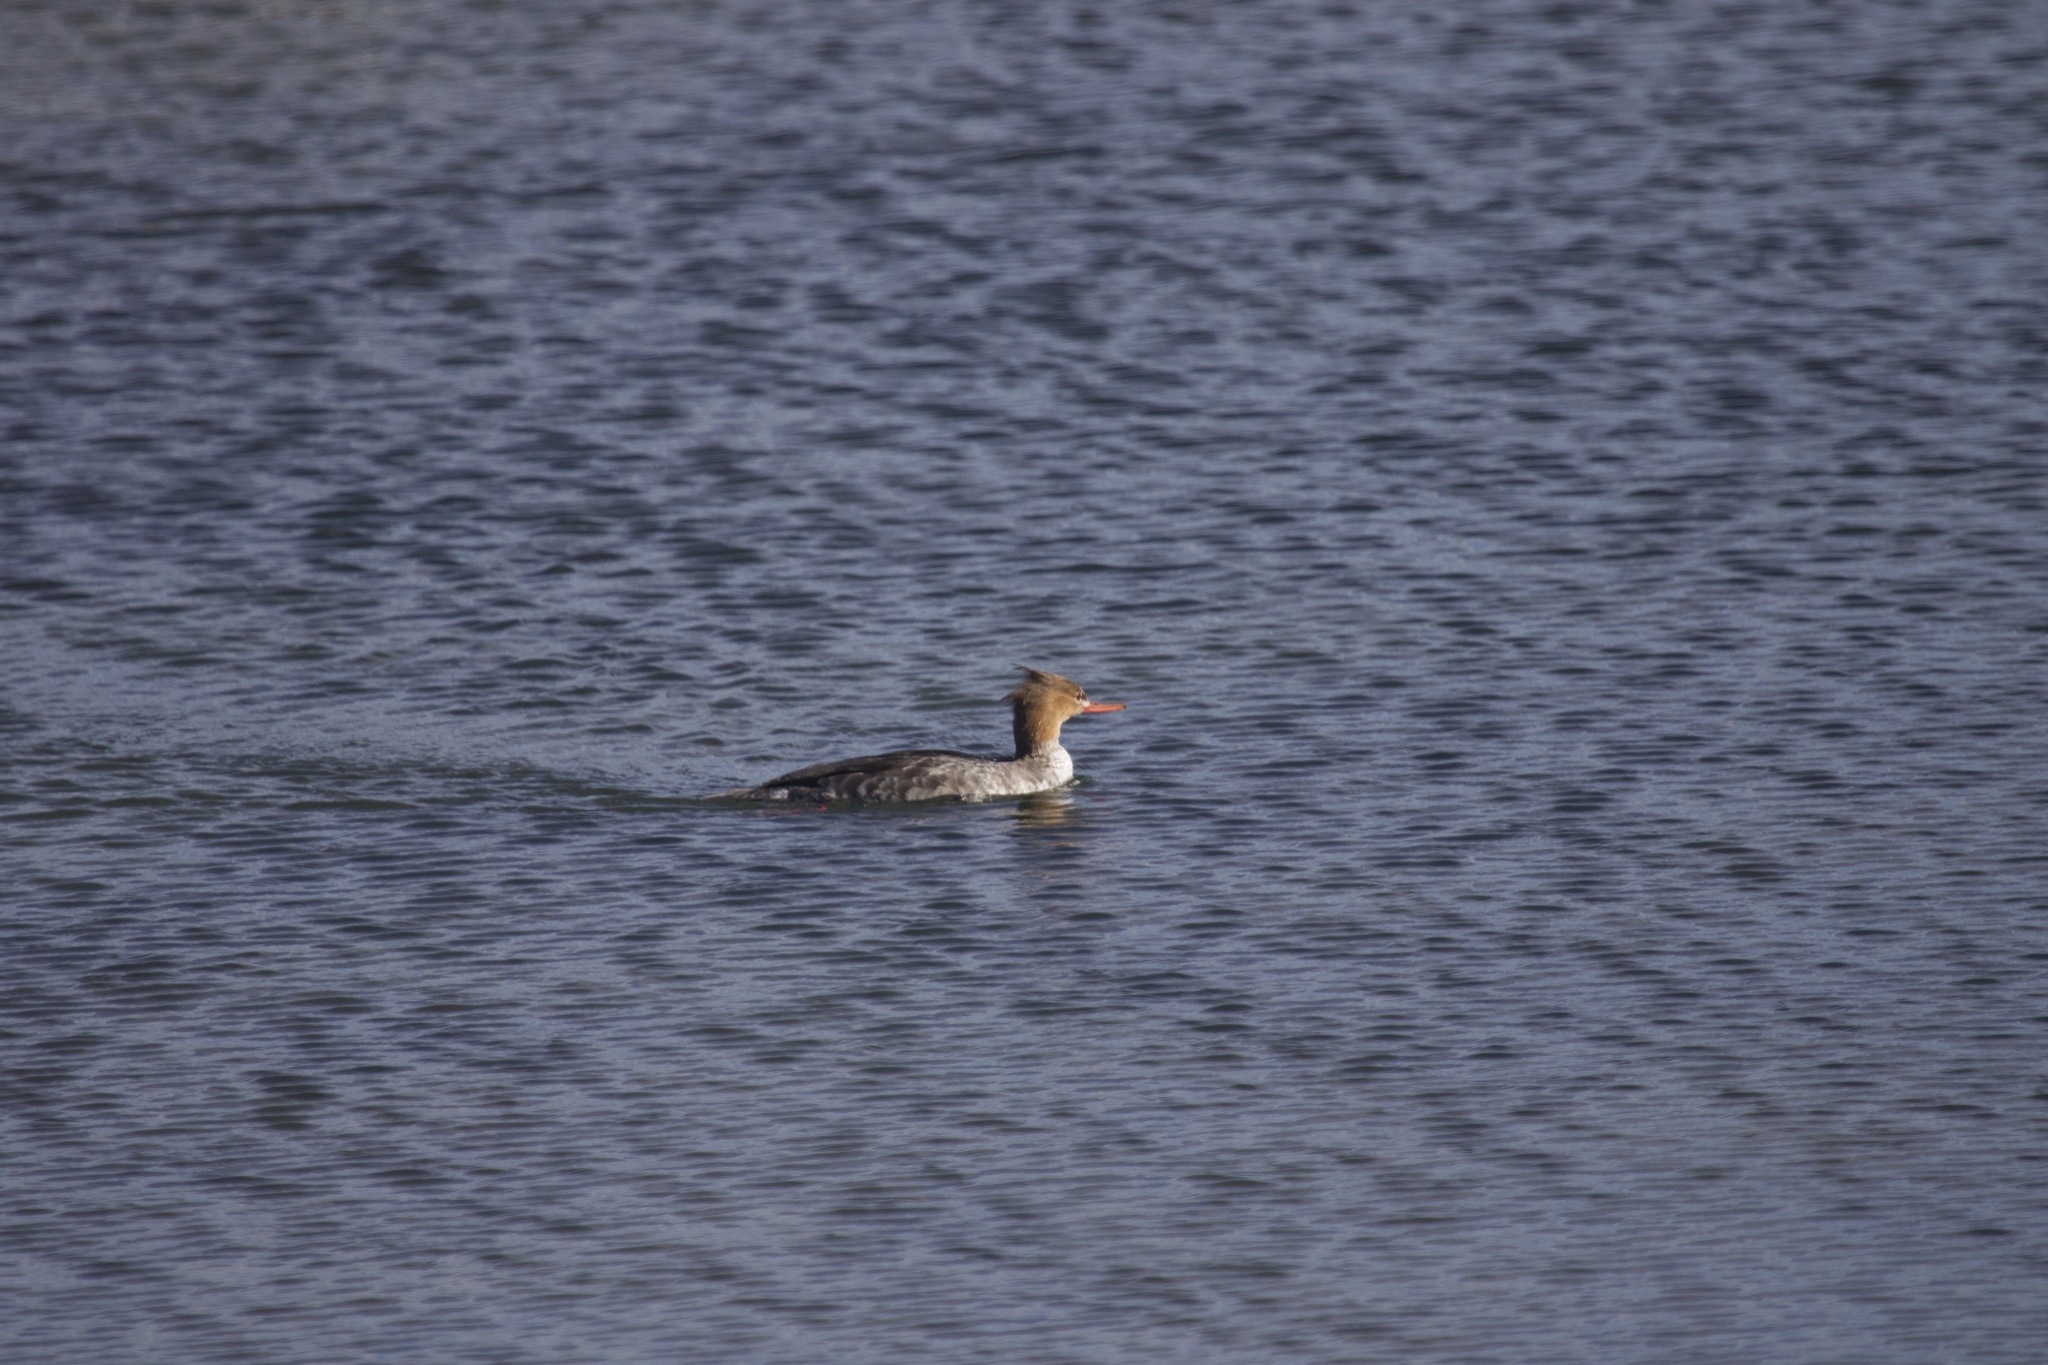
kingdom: Animalia
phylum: Chordata
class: Aves
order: Anseriformes
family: Anatidae
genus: Mergus
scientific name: Mergus serrator
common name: Red-breasted merganser
